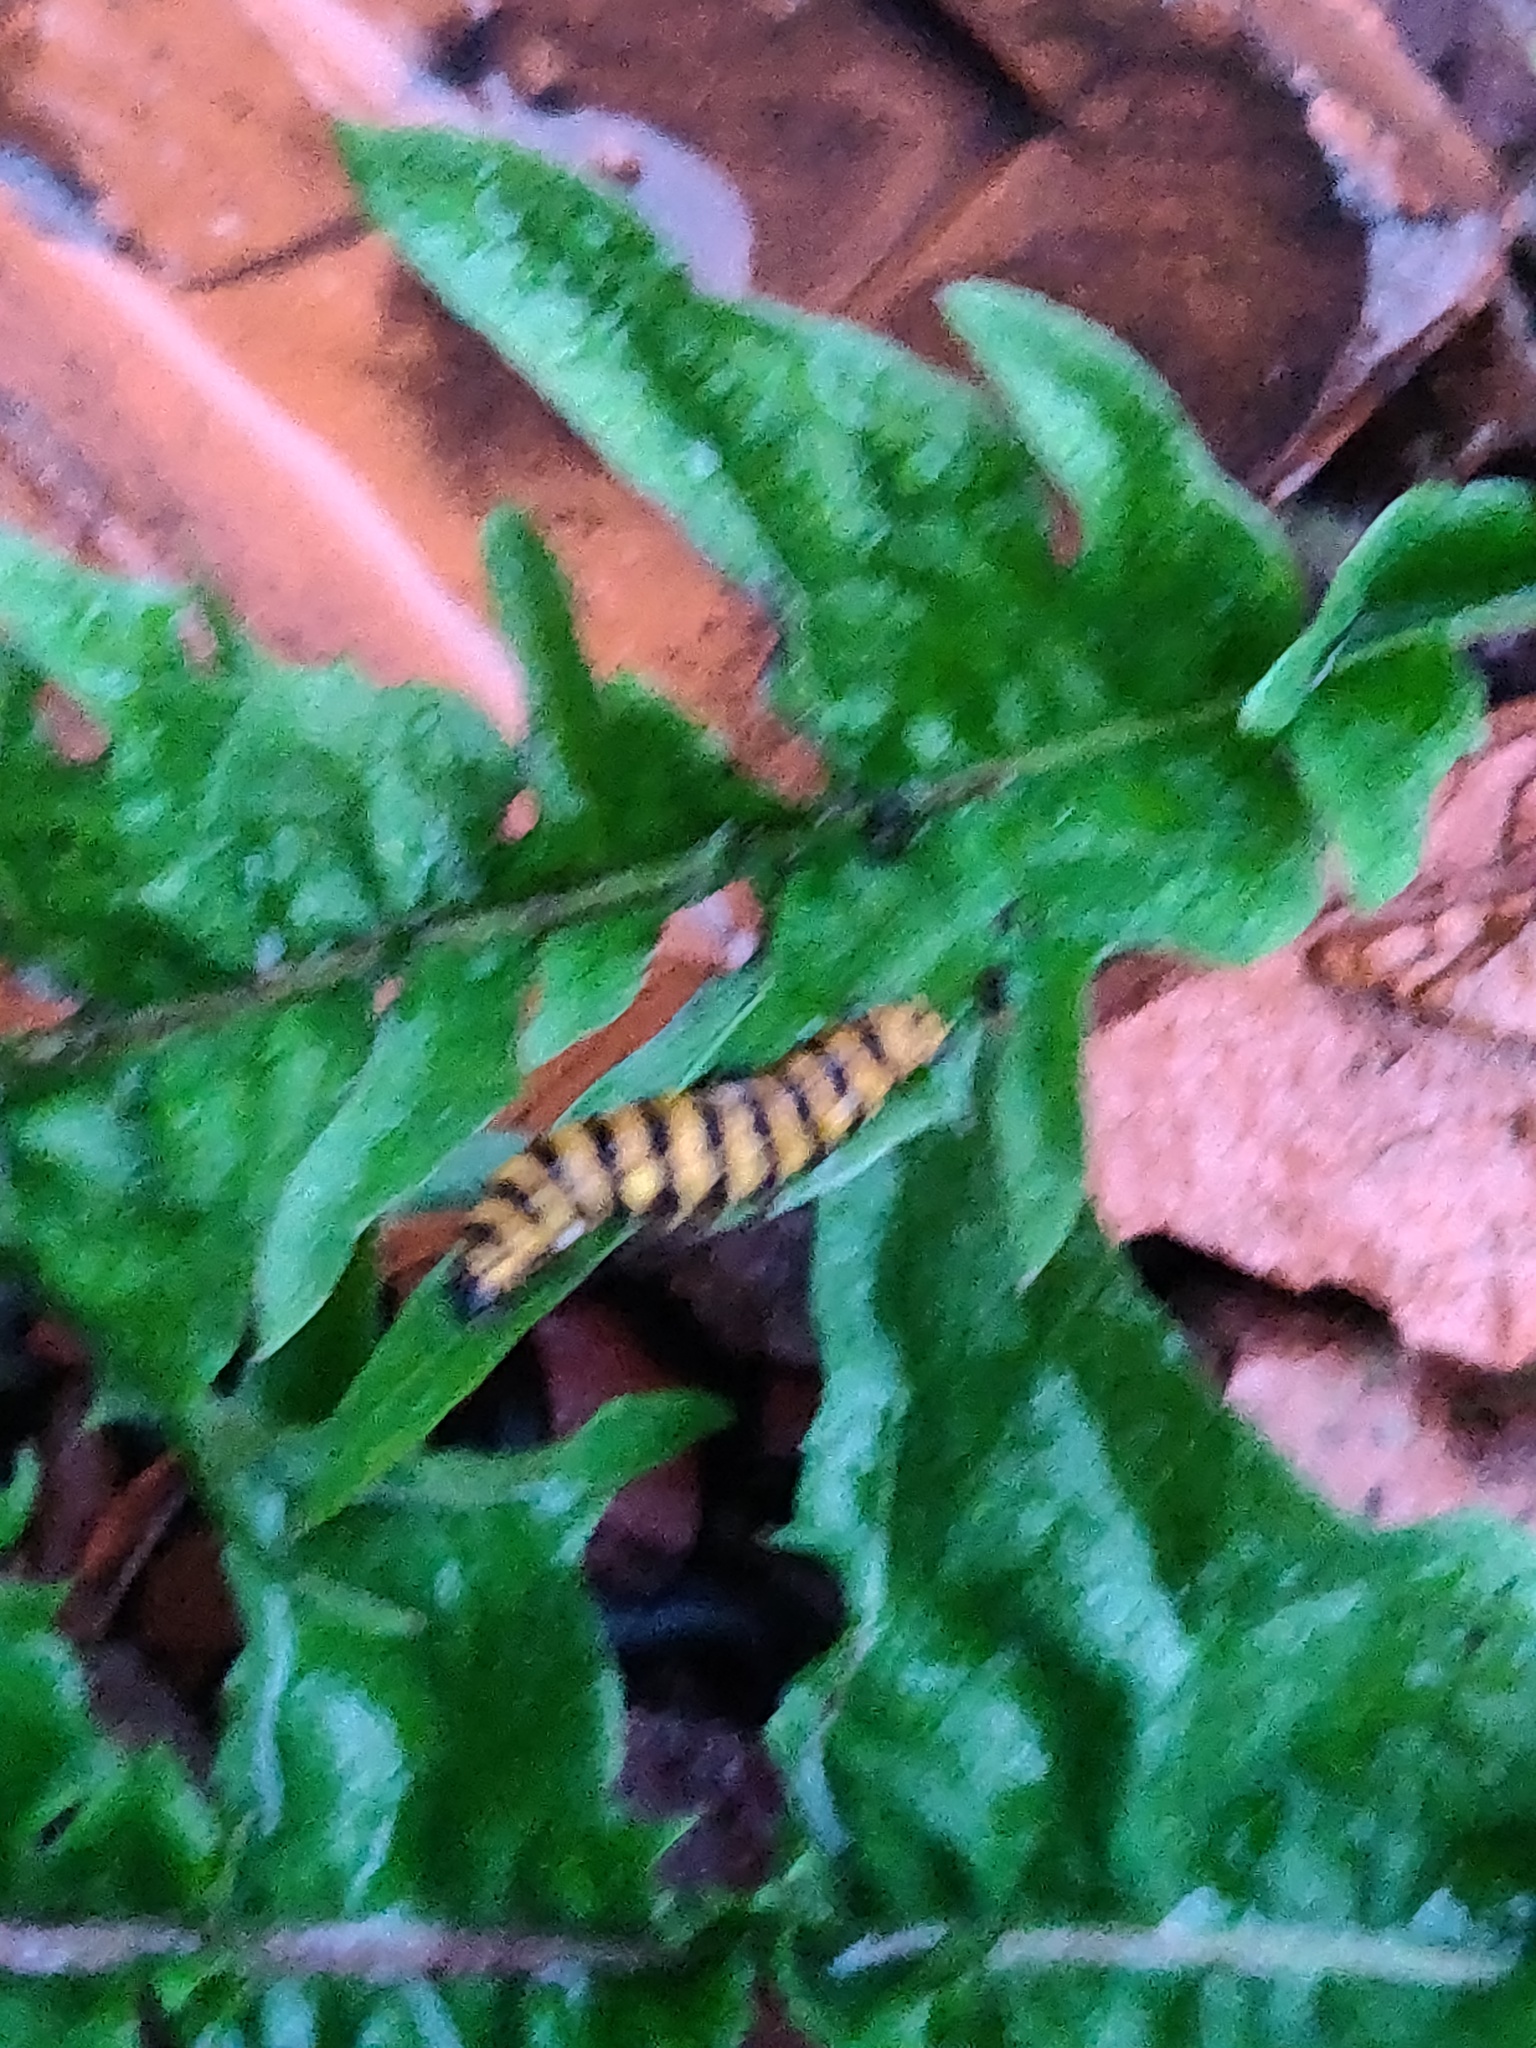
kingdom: Animalia
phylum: Arthropoda
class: Insecta
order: Lepidoptera
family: Erebidae
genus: Tyria
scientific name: Tyria jacobaeae
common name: Cinnabar
